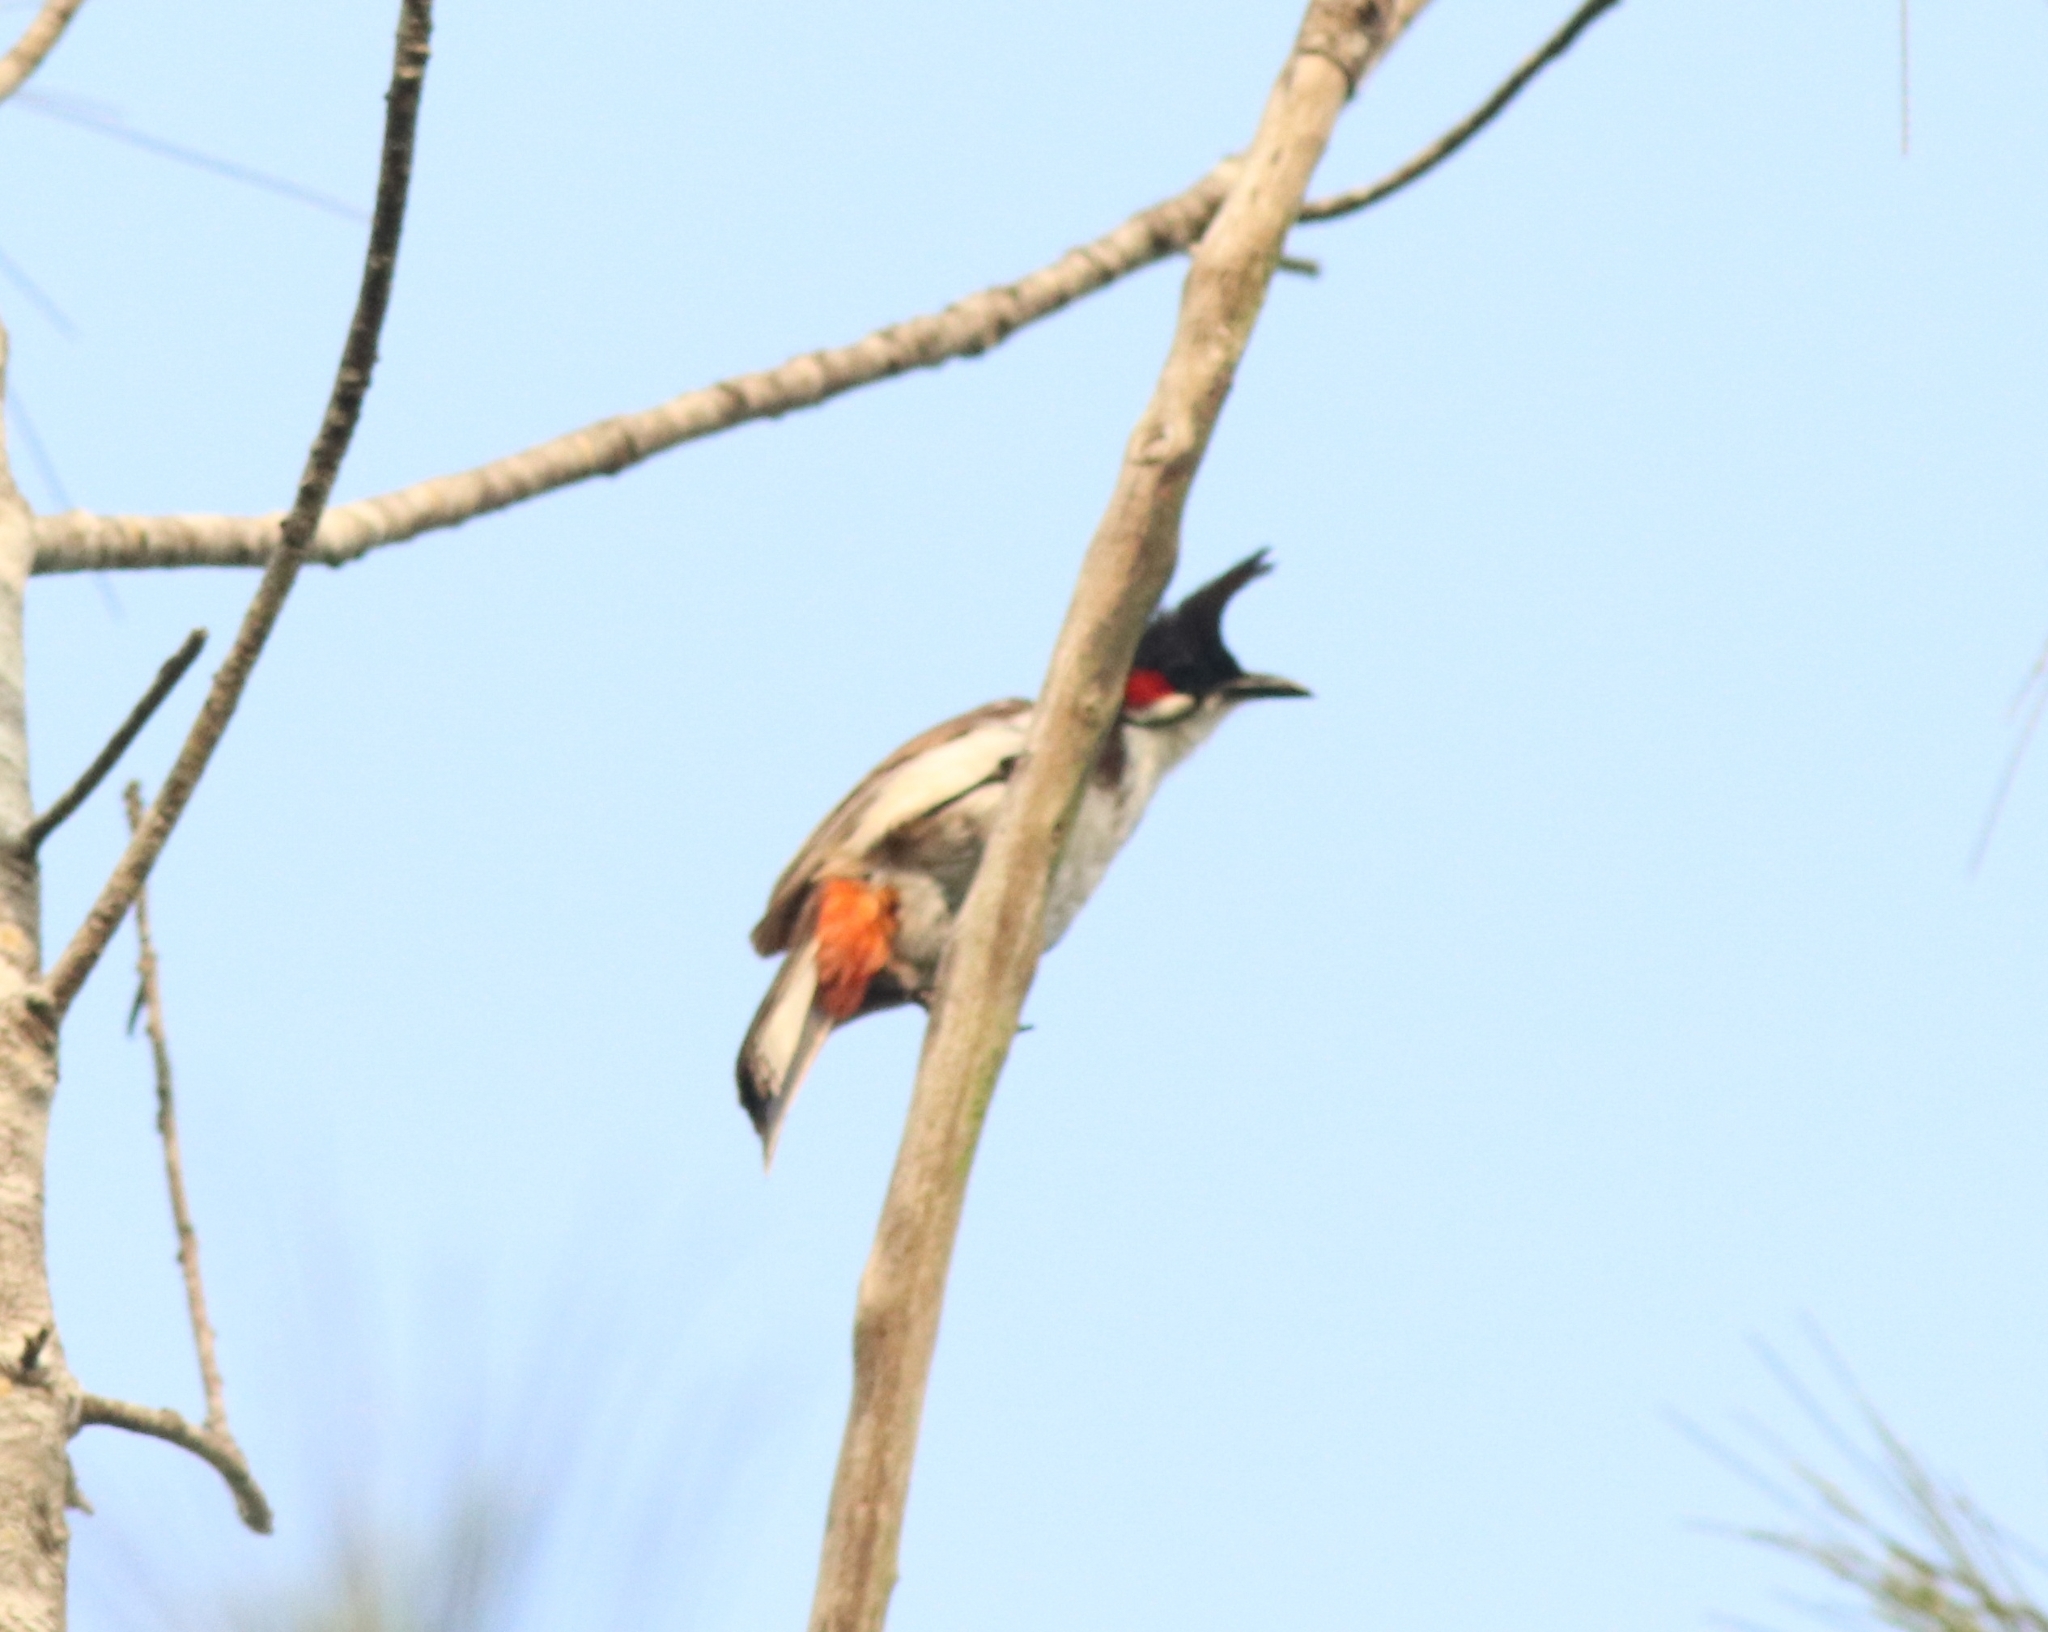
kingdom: Animalia
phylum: Chordata
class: Aves
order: Passeriformes
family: Pycnonotidae
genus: Pycnonotus
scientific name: Pycnonotus jocosus
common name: Red-whiskered bulbul
